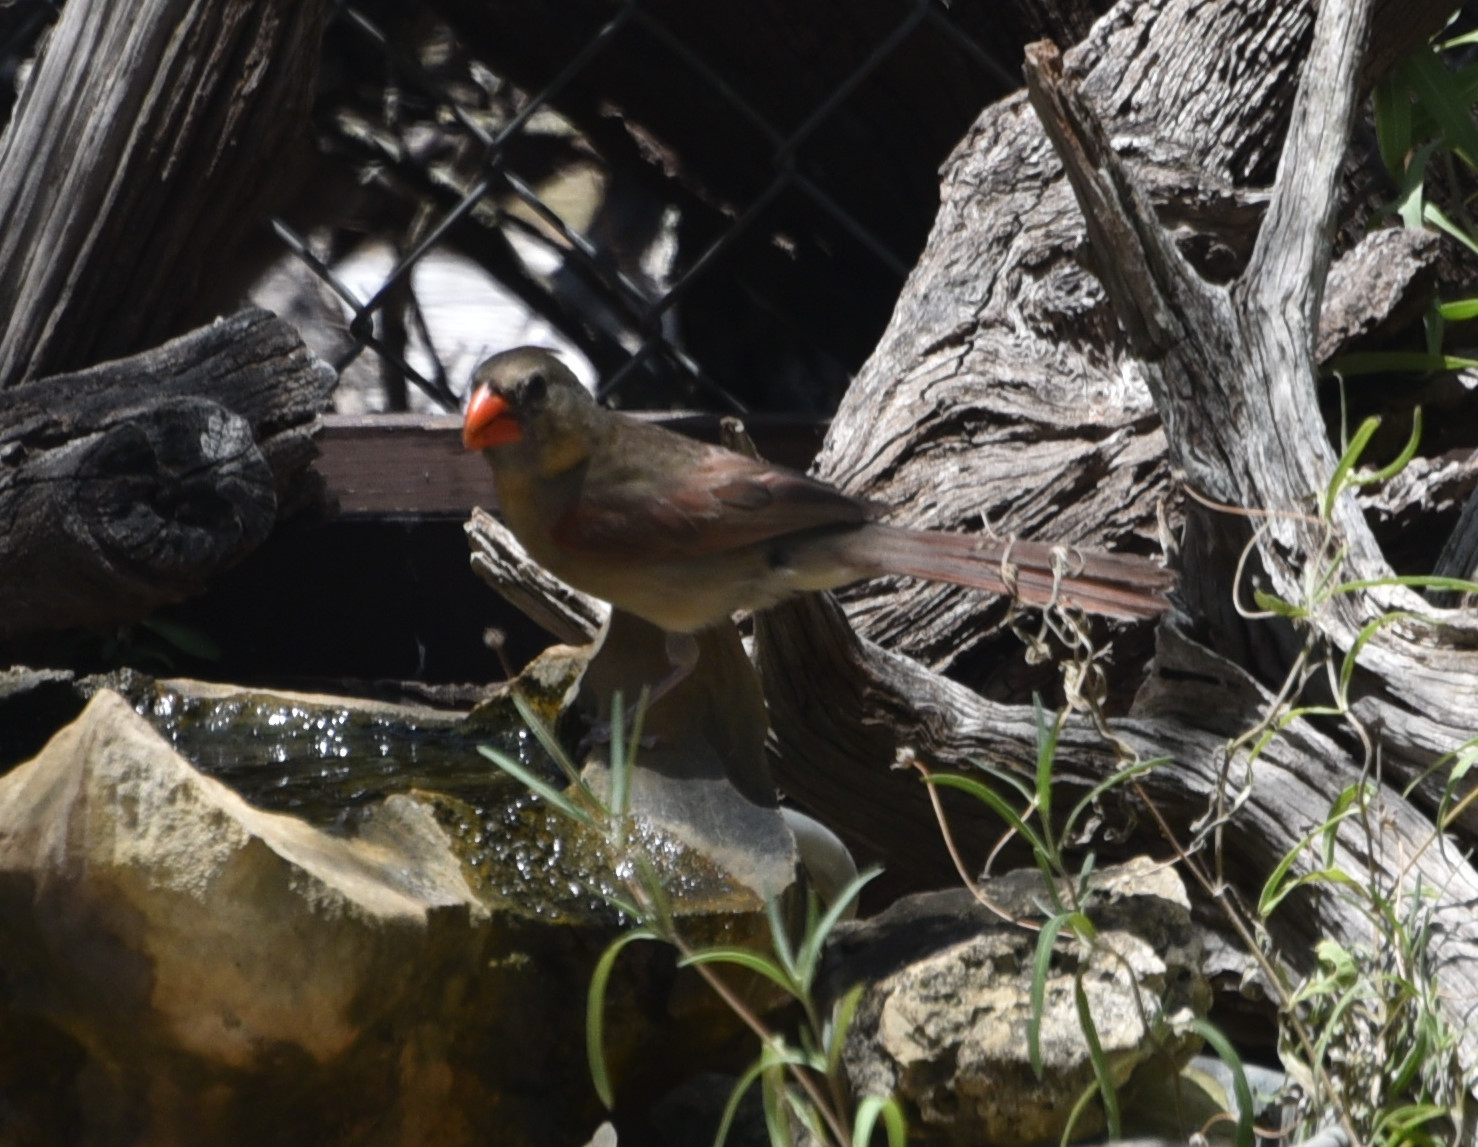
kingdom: Animalia
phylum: Chordata
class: Aves
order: Passeriformes
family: Cardinalidae
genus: Cardinalis
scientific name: Cardinalis cardinalis
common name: Northern cardinal
